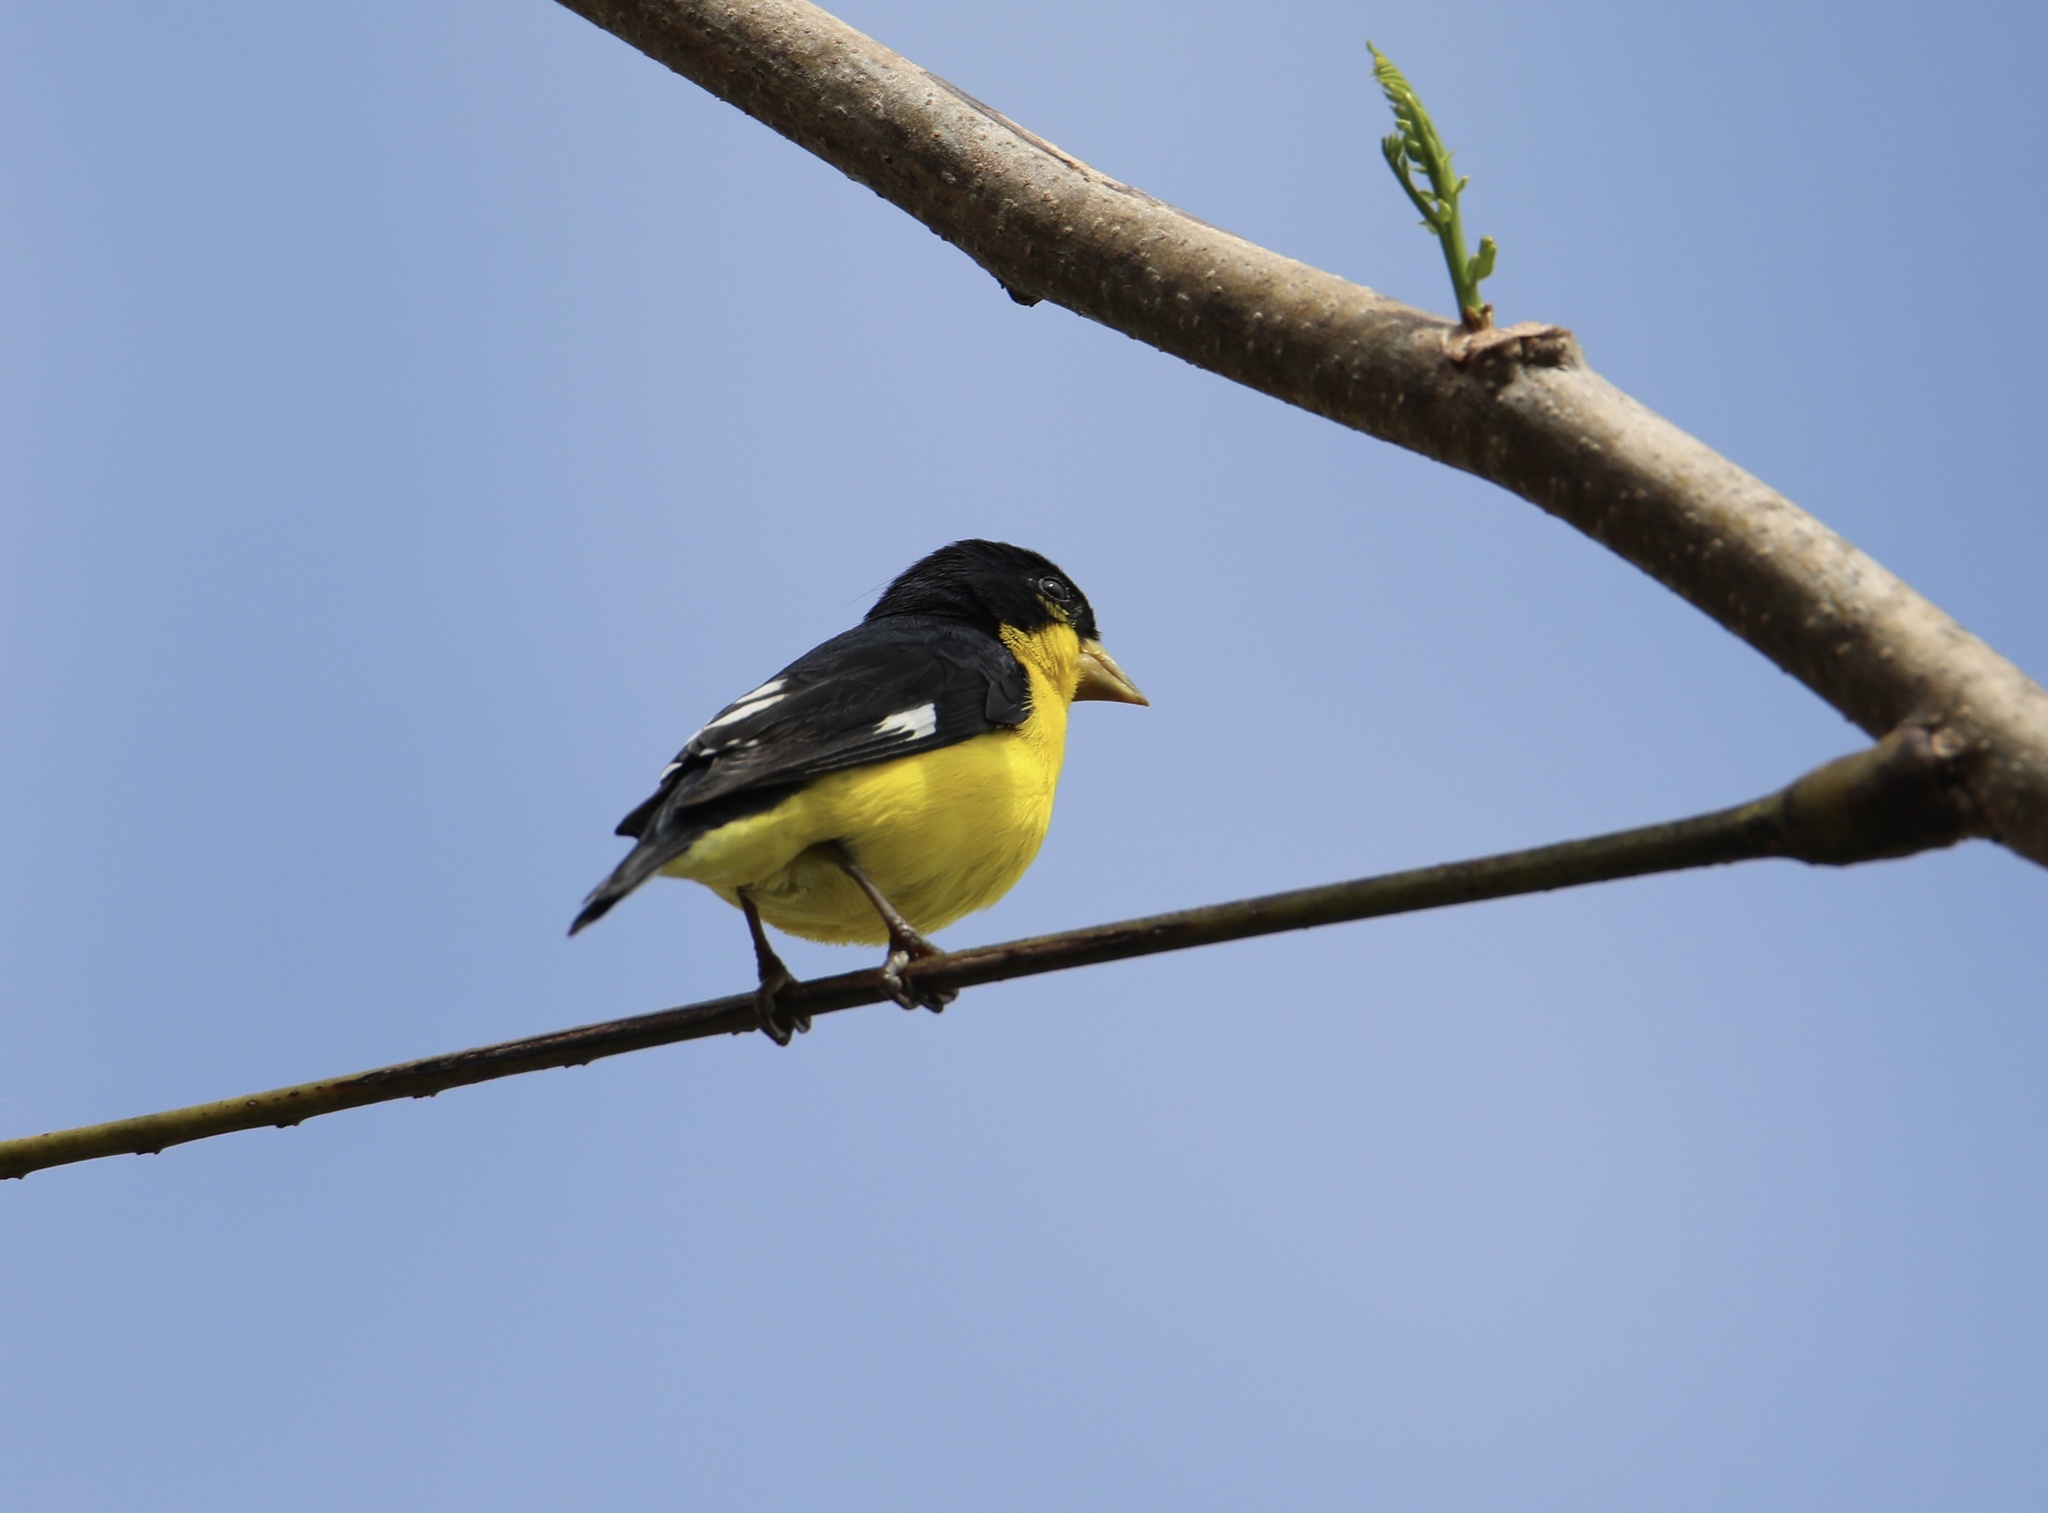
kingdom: Animalia
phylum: Chordata
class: Aves
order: Passeriformes
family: Fringillidae
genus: Spinus
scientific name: Spinus psaltria
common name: Lesser goldfinch
